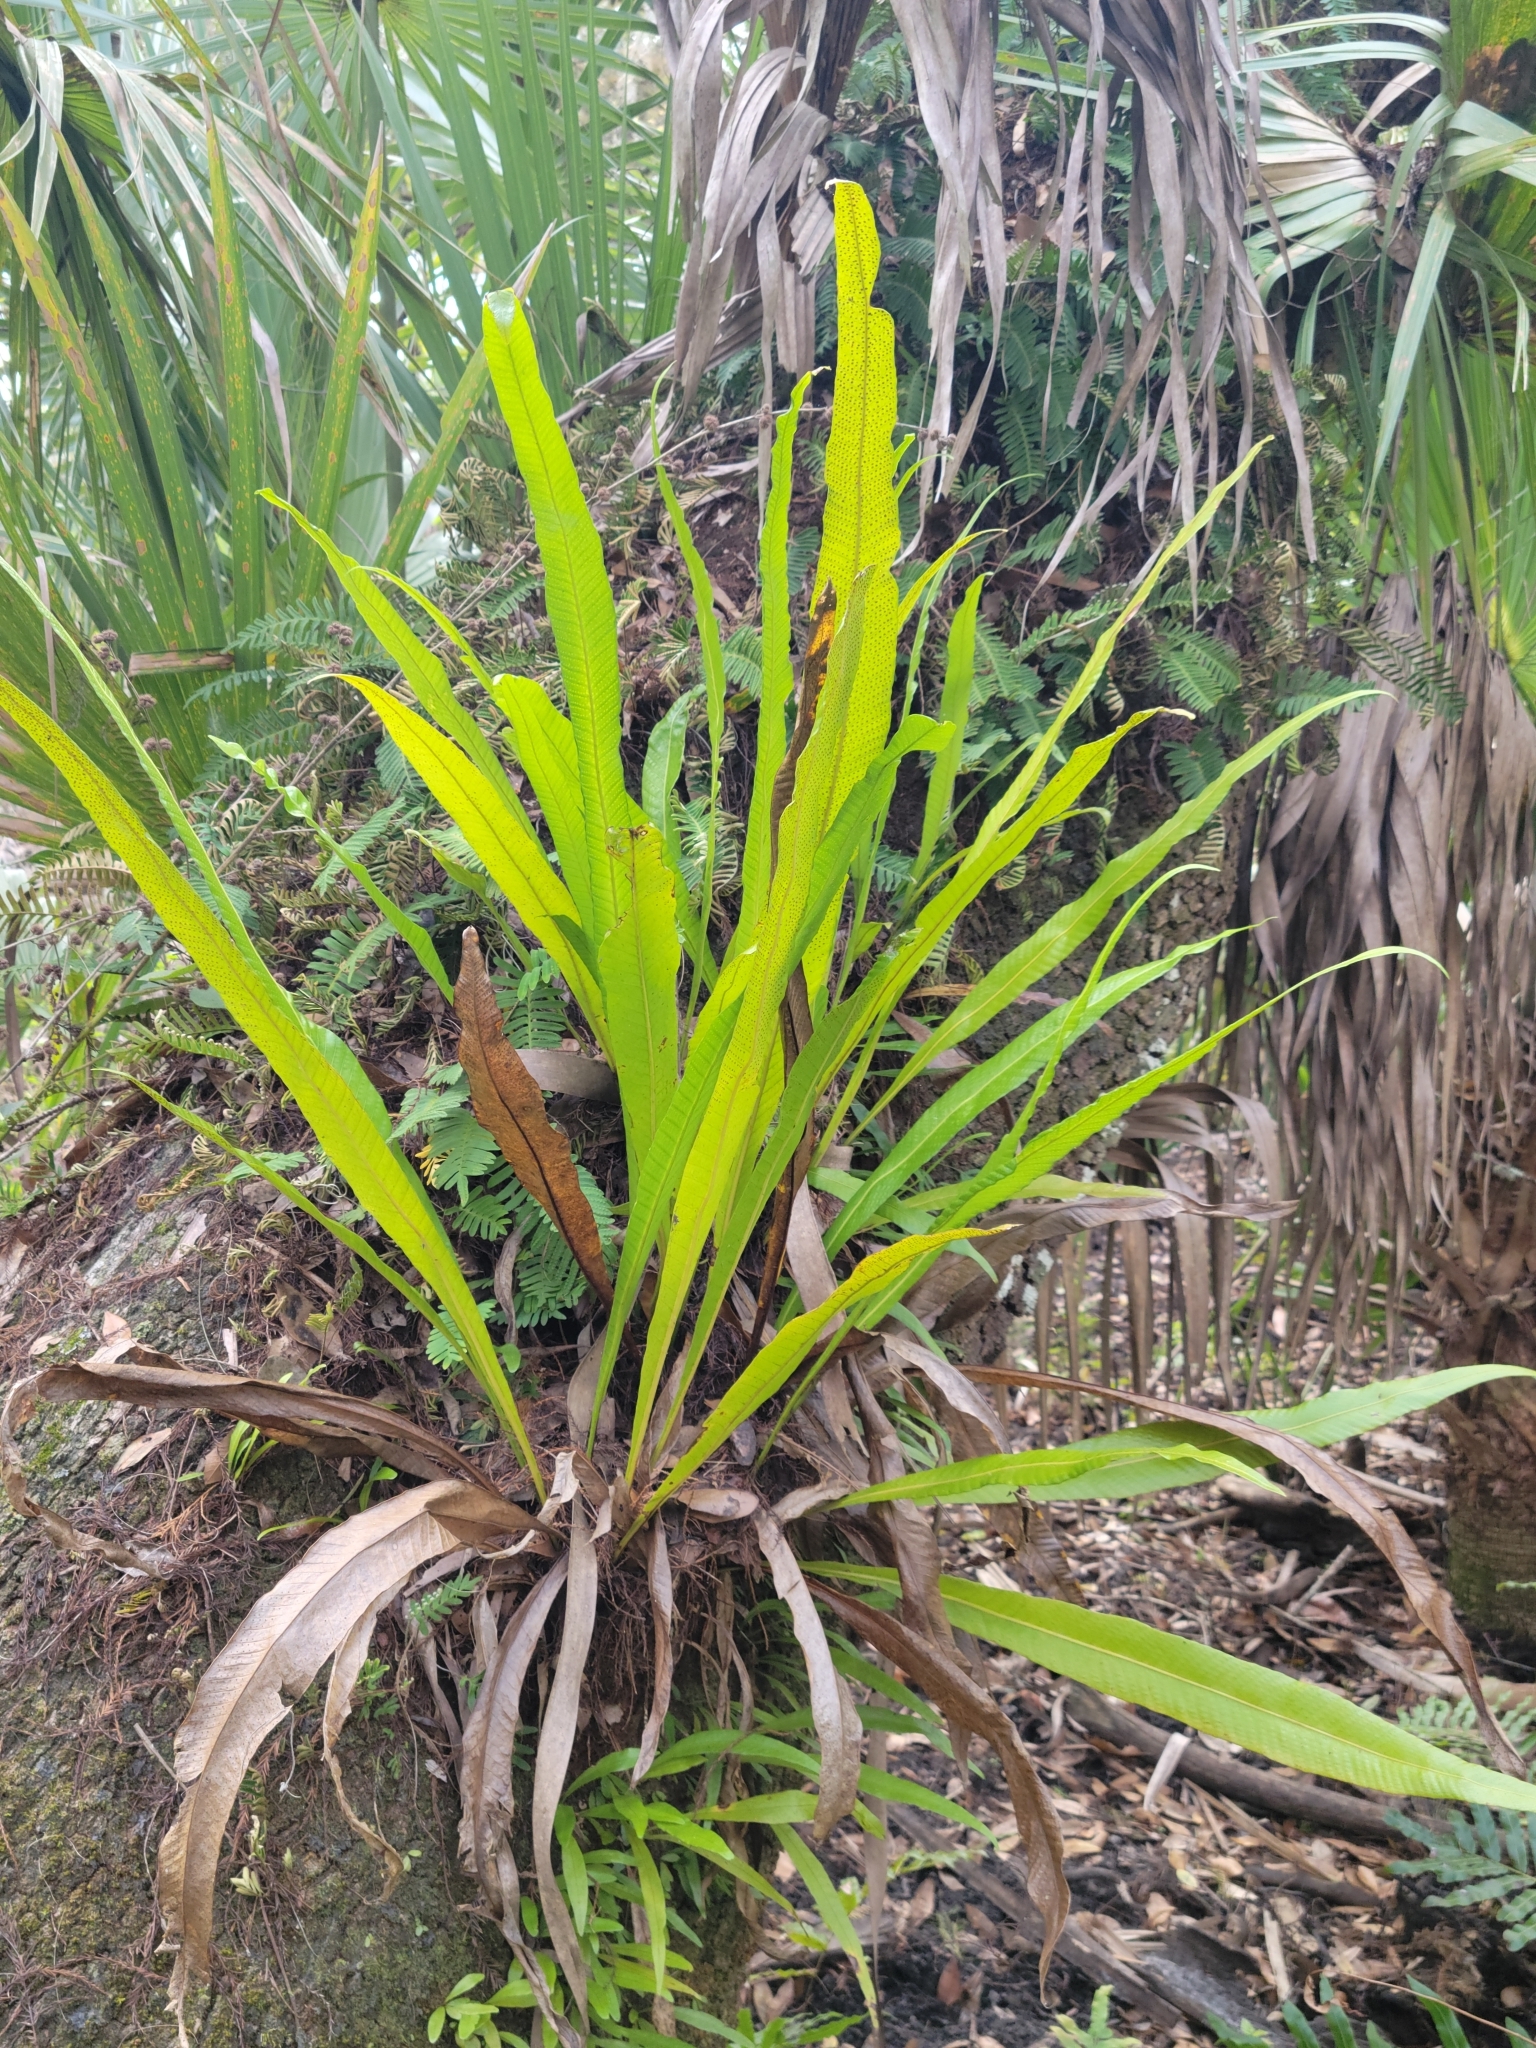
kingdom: Plantae
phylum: Tracheophyta
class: Polypodiopsida
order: Polypodiales
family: Polypodiaceae
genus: Campyloneurum
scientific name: Campyloneurum phyllitidis
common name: Cow-tongue fern
